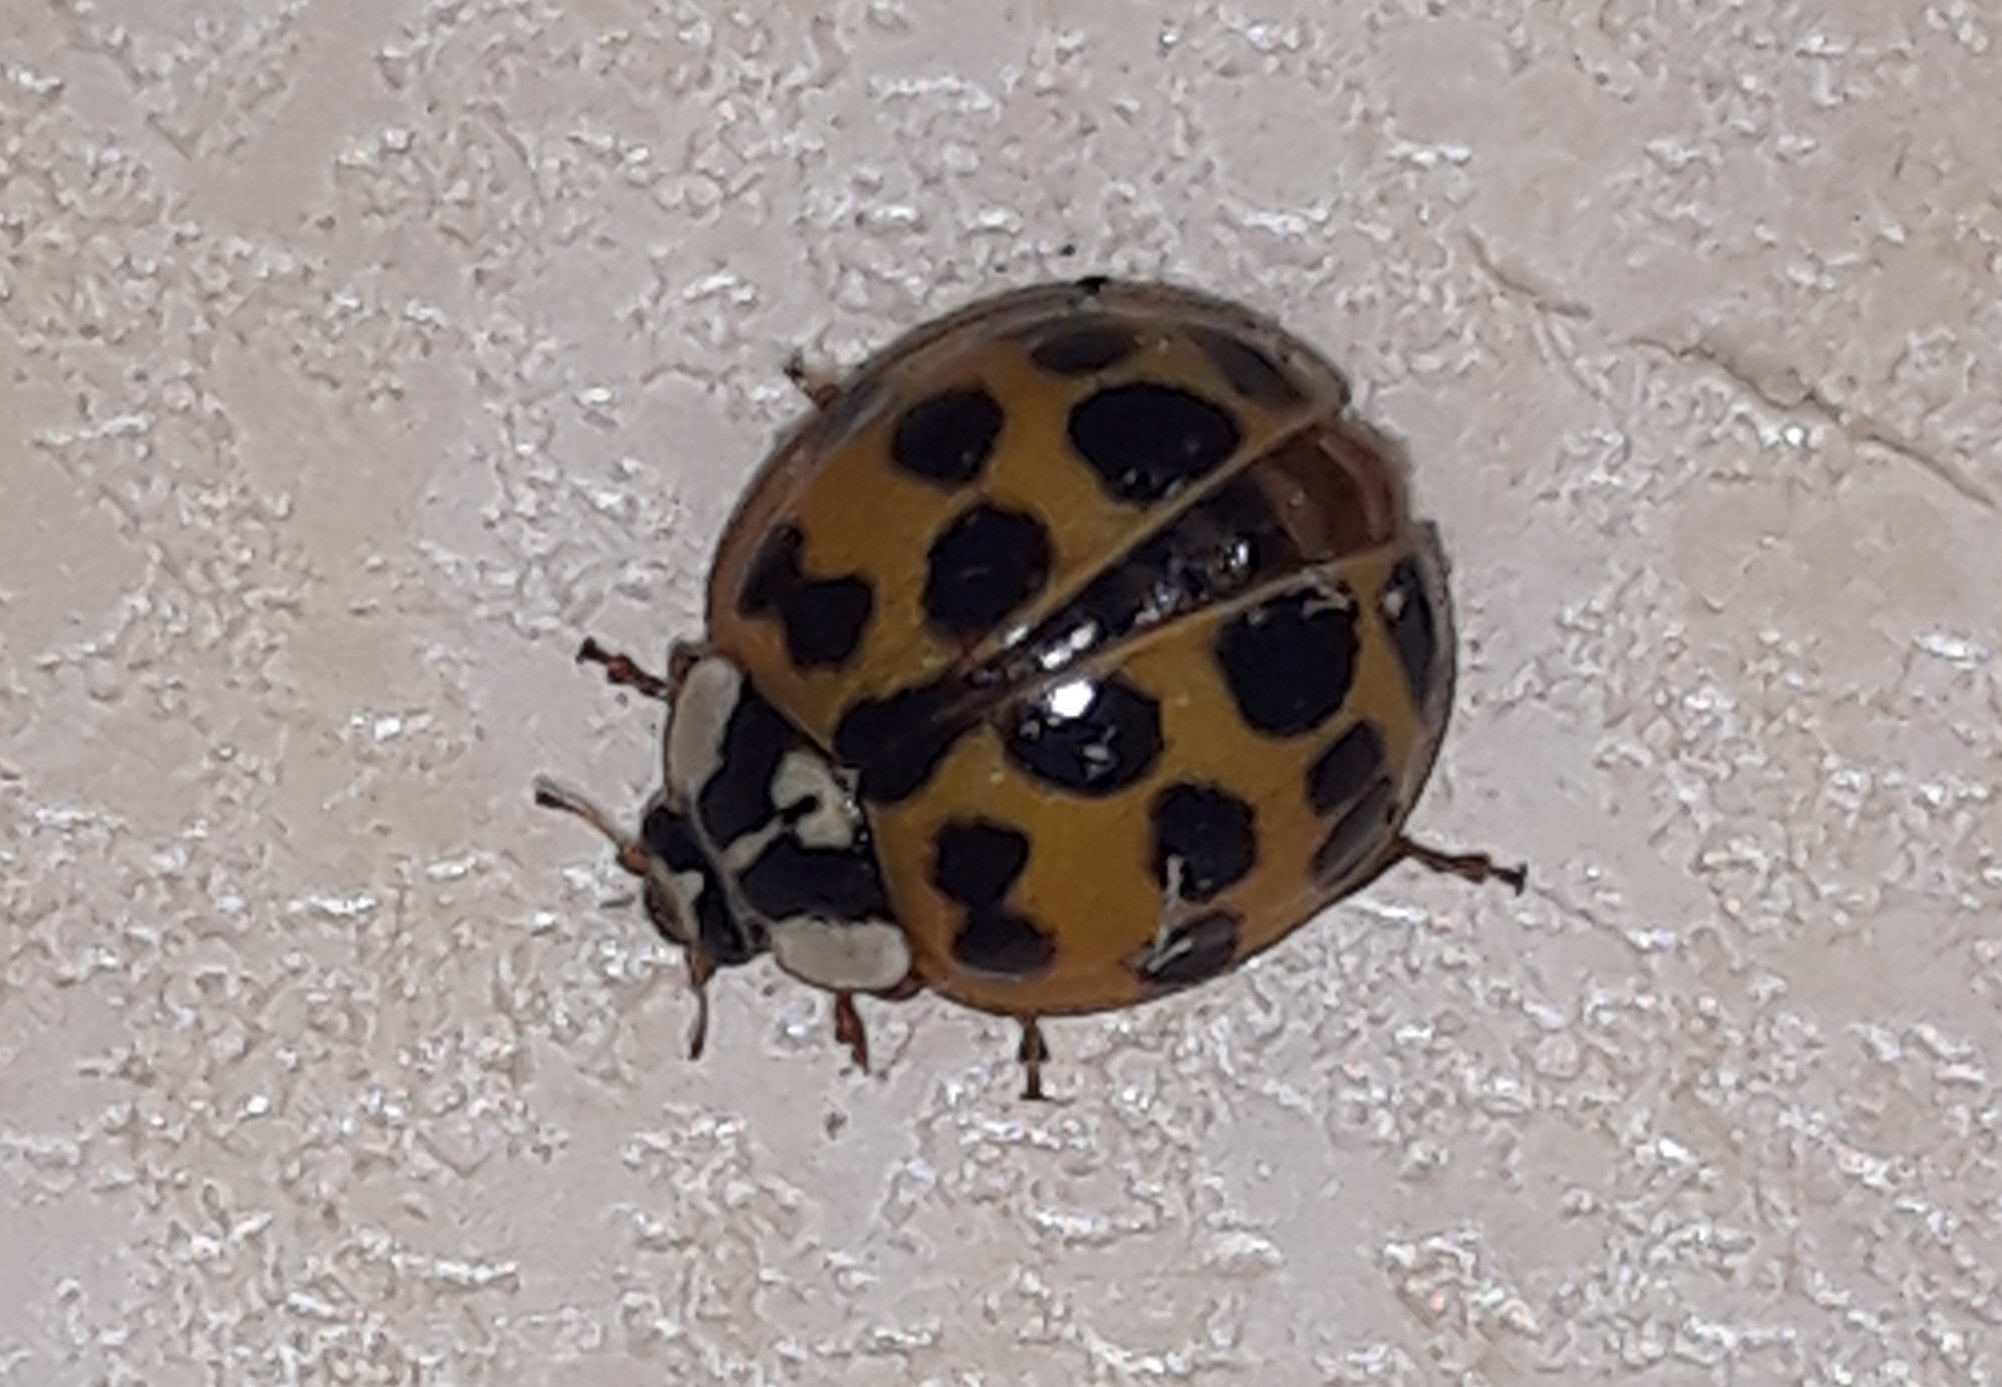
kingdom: Animalia
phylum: Arthropoda
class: Insecta
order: Coleoptera
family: Coccinellidae
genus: Harmonia
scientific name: Harmonia axyridis
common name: Harlequin ladybird
